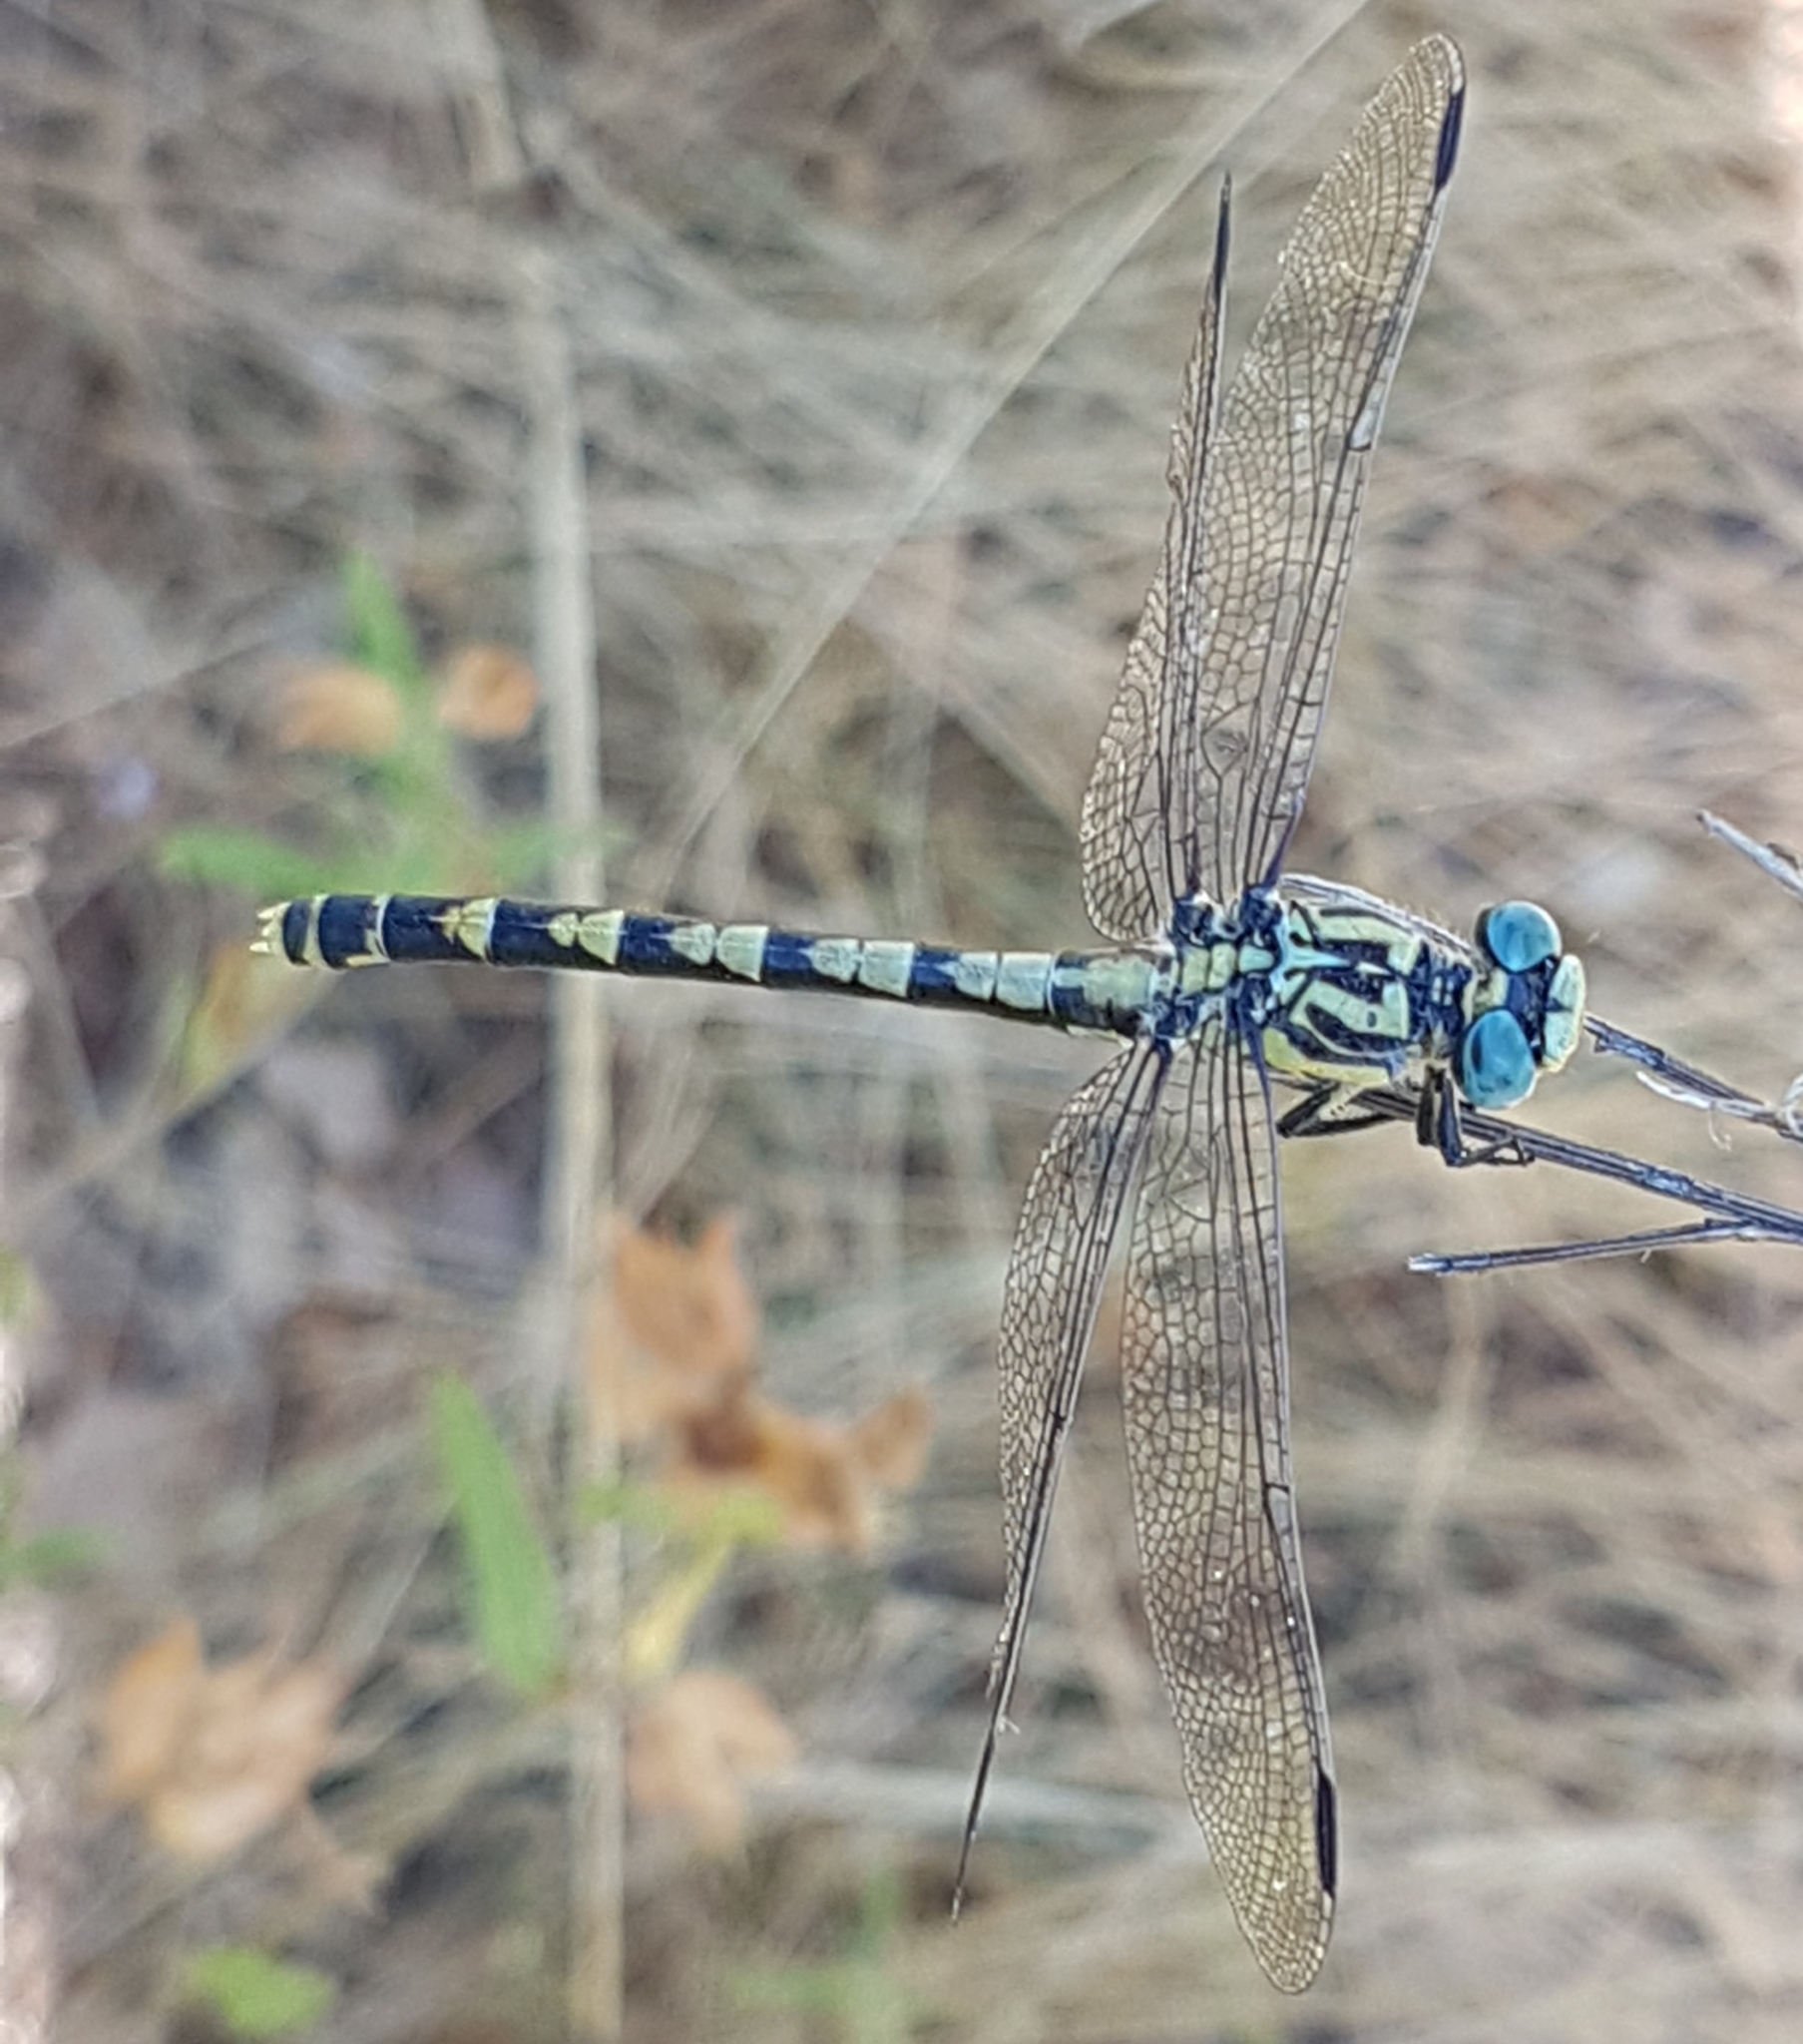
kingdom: Animalia
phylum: Arthropoda
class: Insecta
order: Odonata
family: Gomphidae
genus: Onychogomphus
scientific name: Onychogomphus uncatus
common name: Large pincertail
